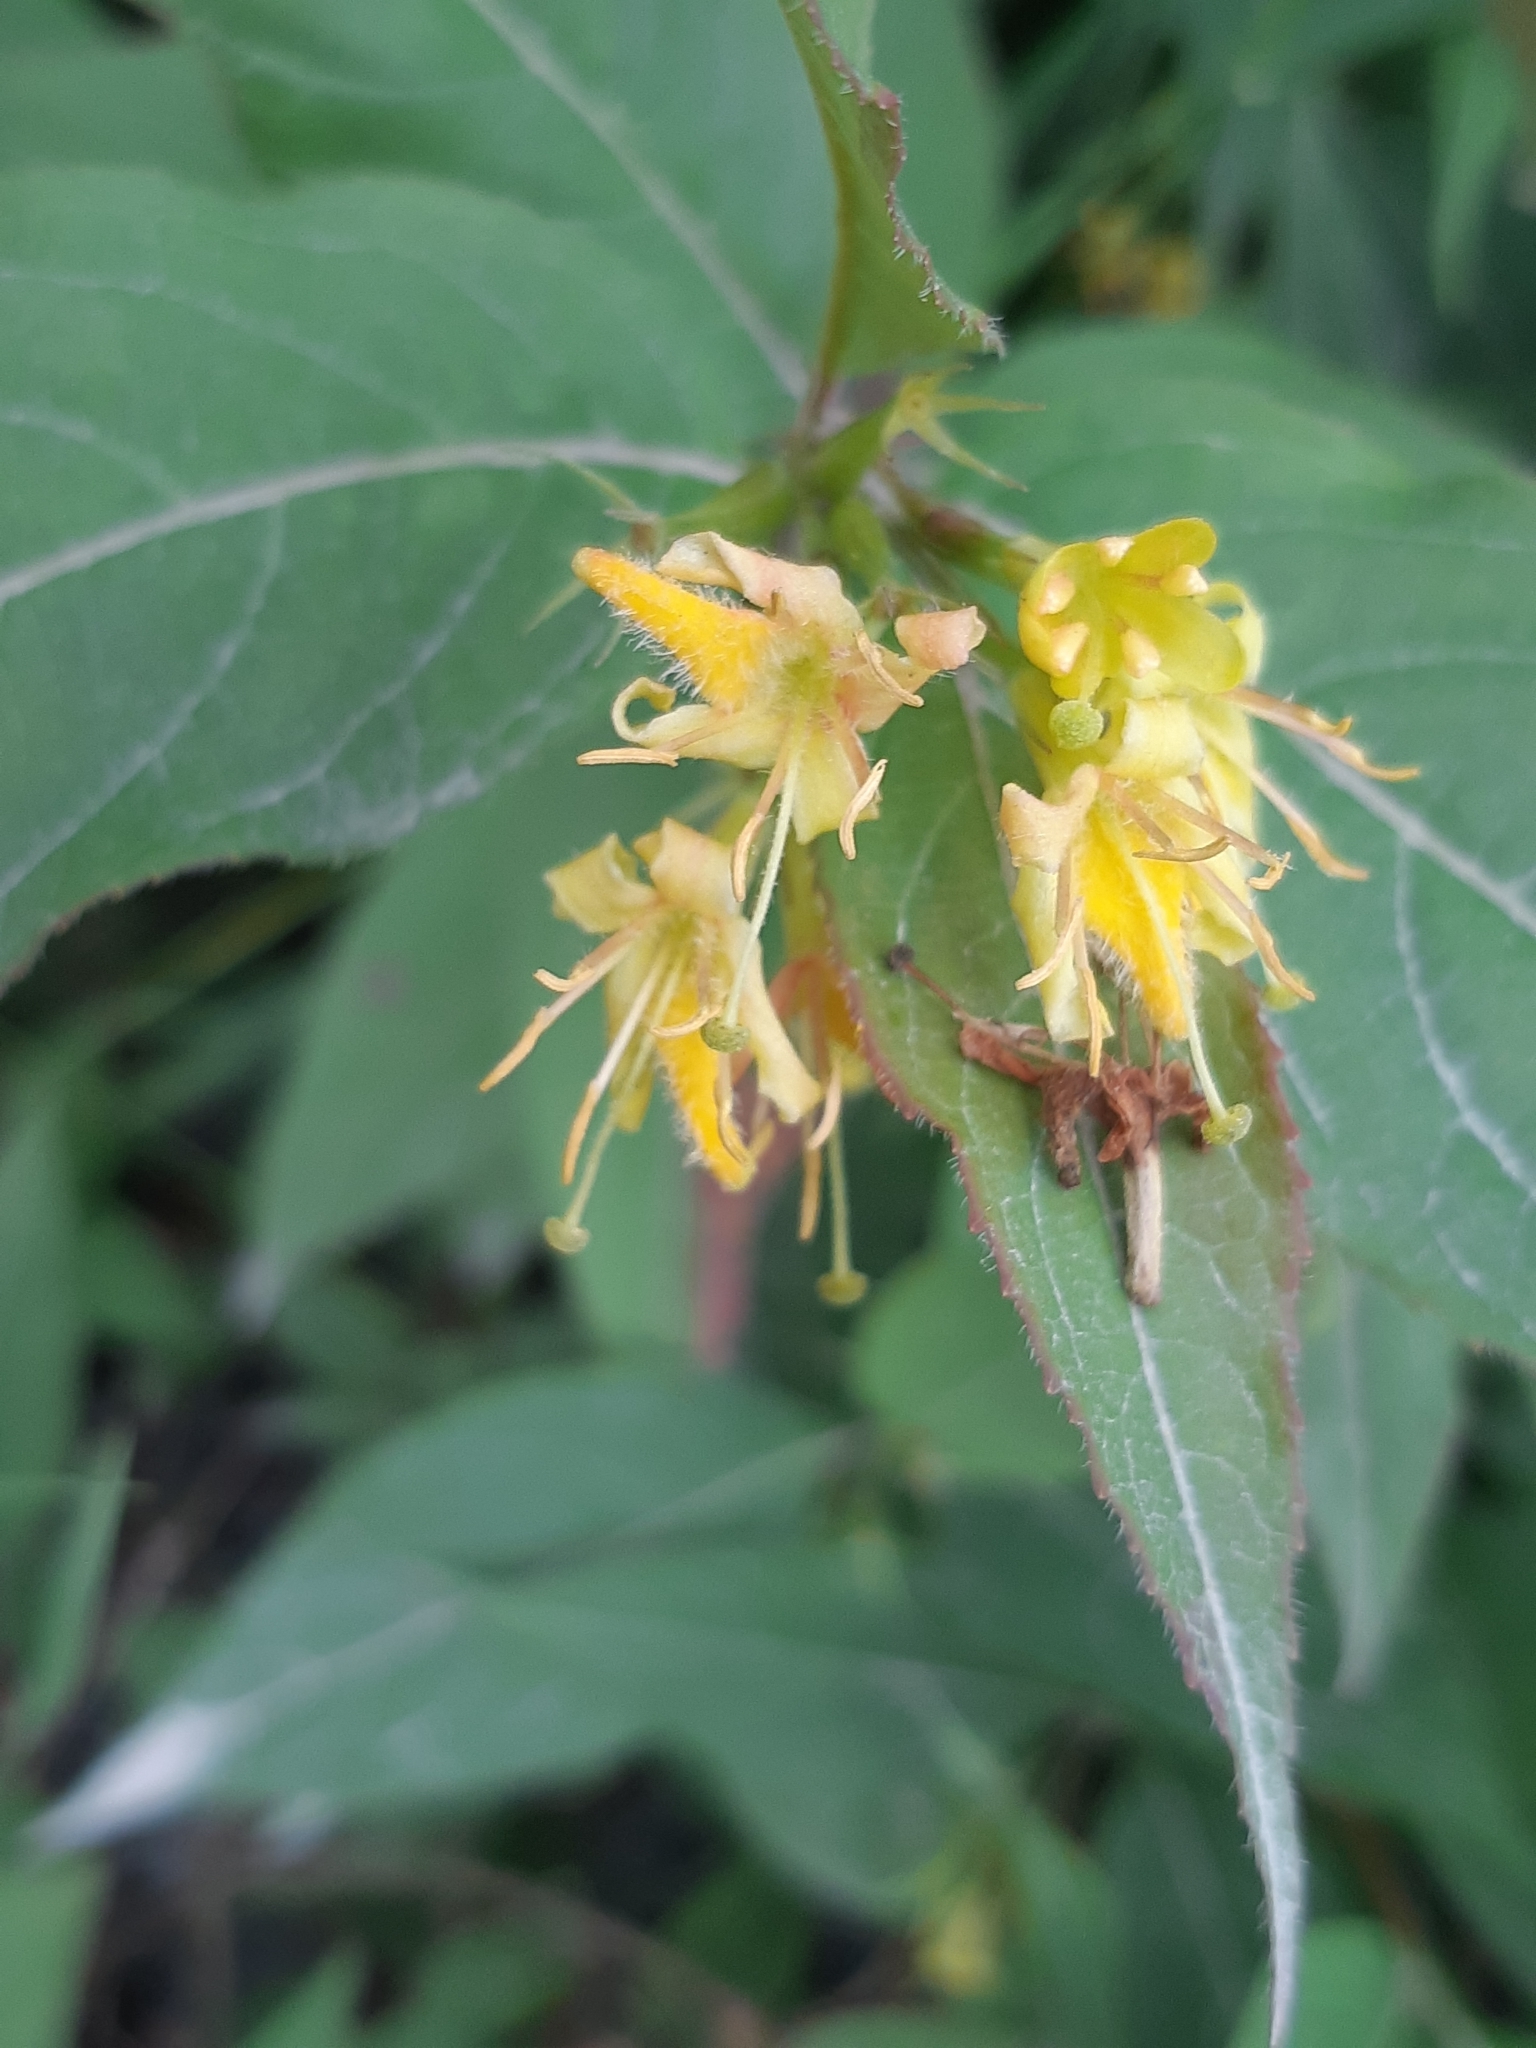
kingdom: Plantae
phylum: Tracheophyta
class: Magnoliopsida
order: Dipsacales
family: Caprifoliaceae
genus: Diervilla
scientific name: Diervilla lonicera
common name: Bush-honeysuckle
